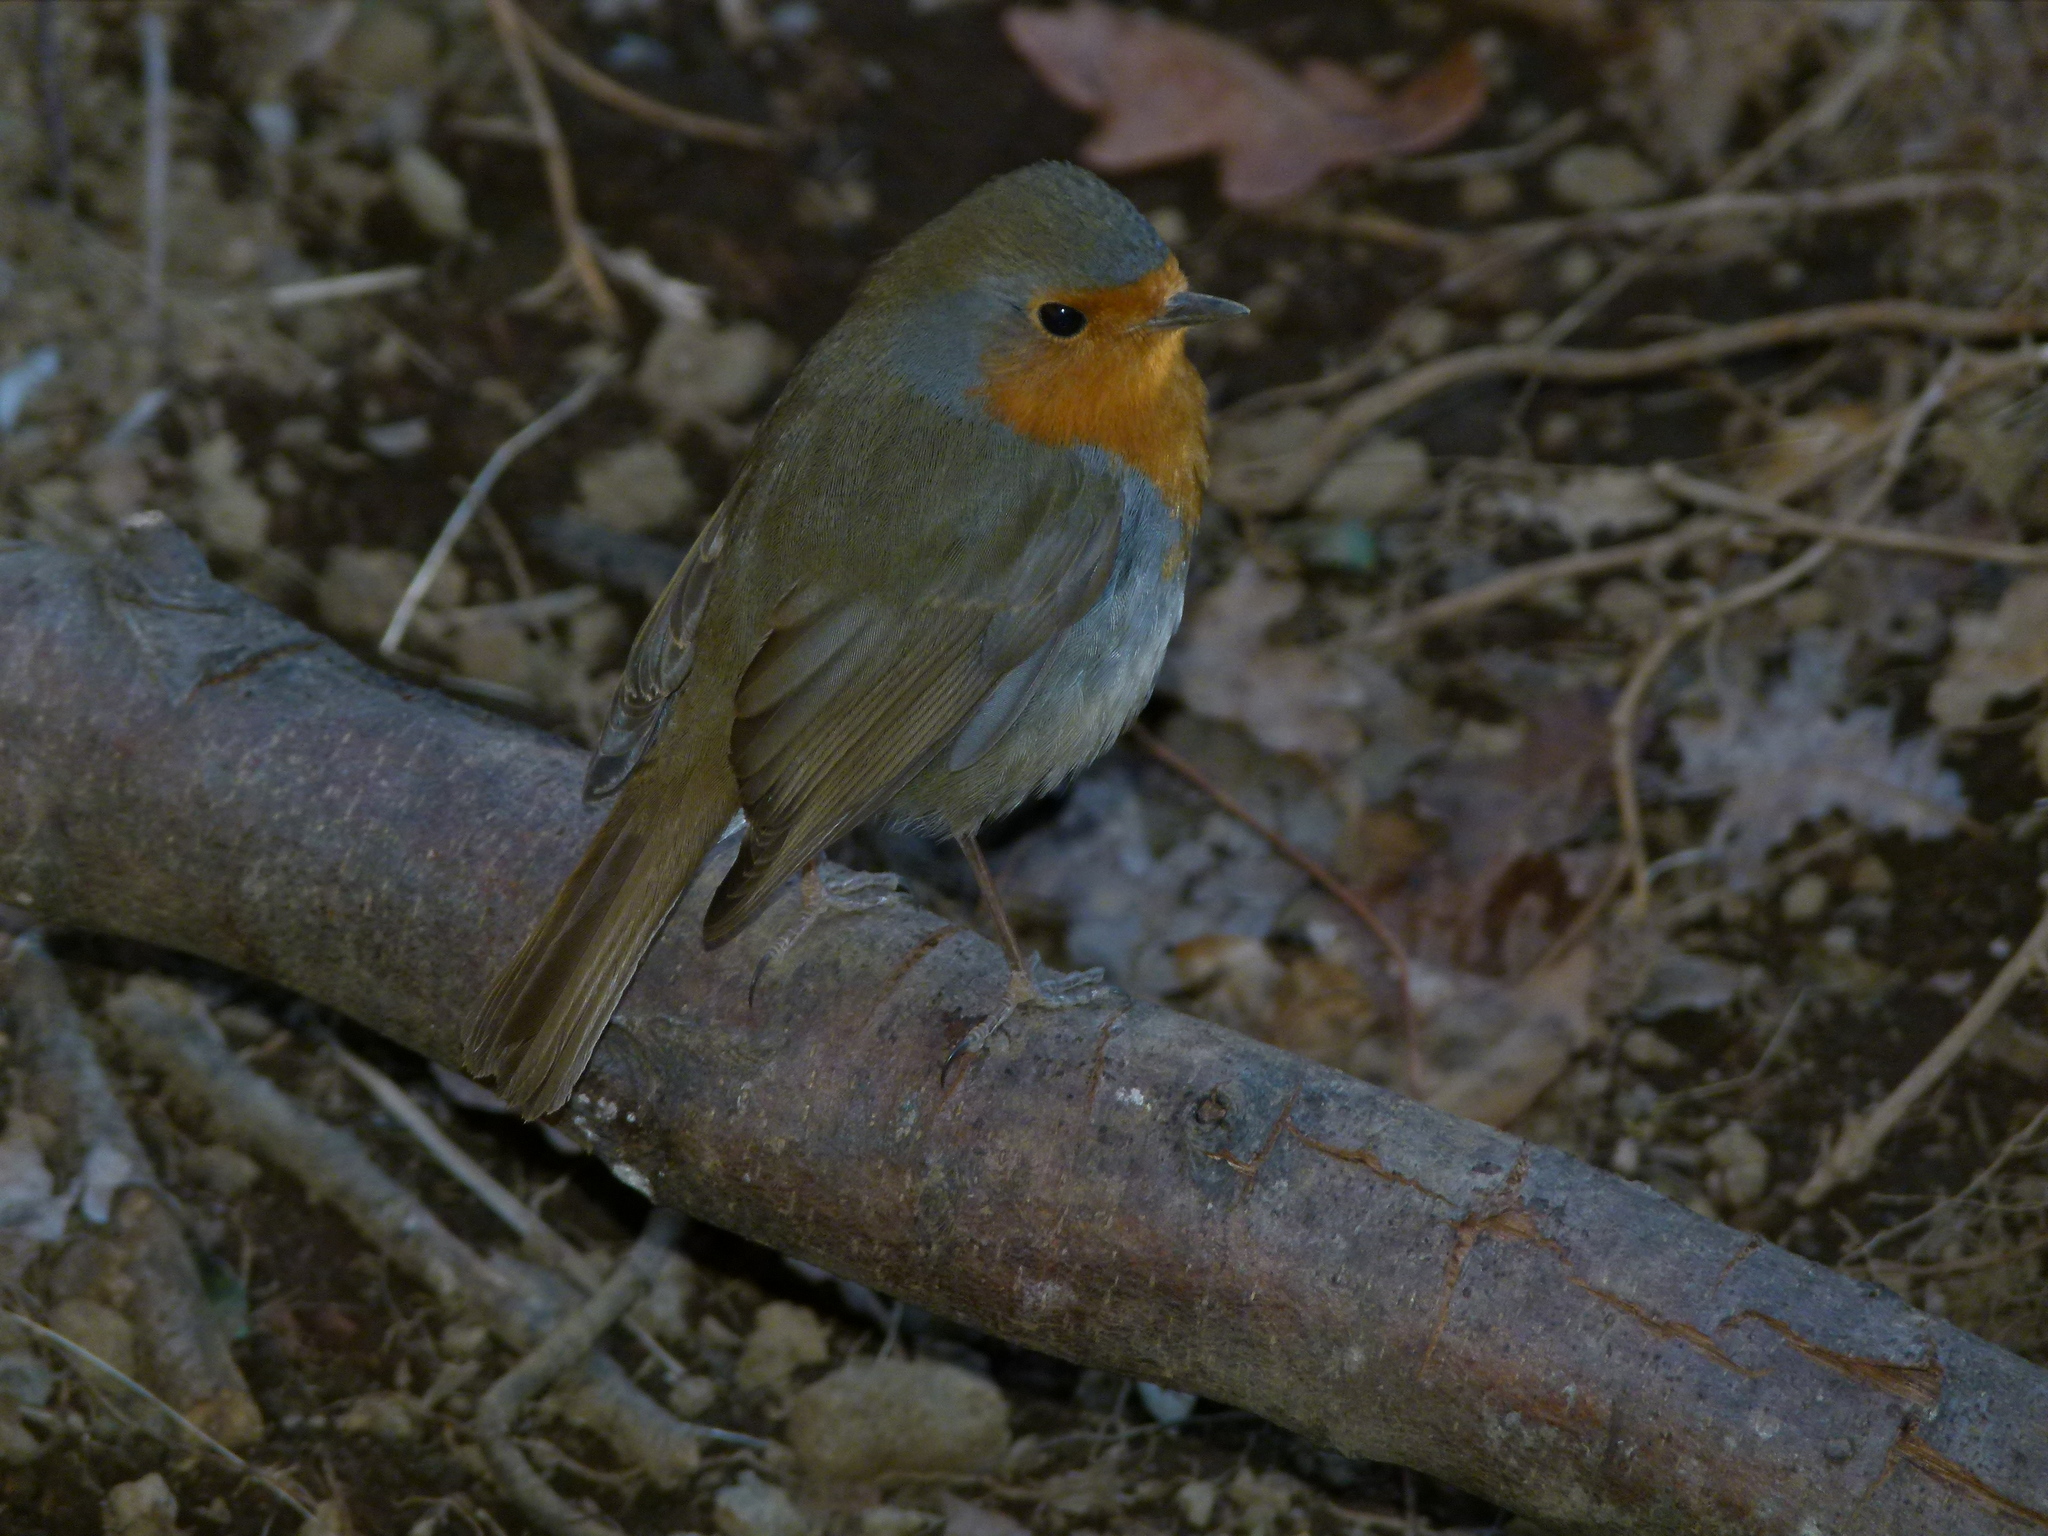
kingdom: Animalia
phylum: Chordata
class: Aves
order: Passeriformes
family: Muscicapidae
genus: Erithacus
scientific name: Erithacus rubecula
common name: European robin
